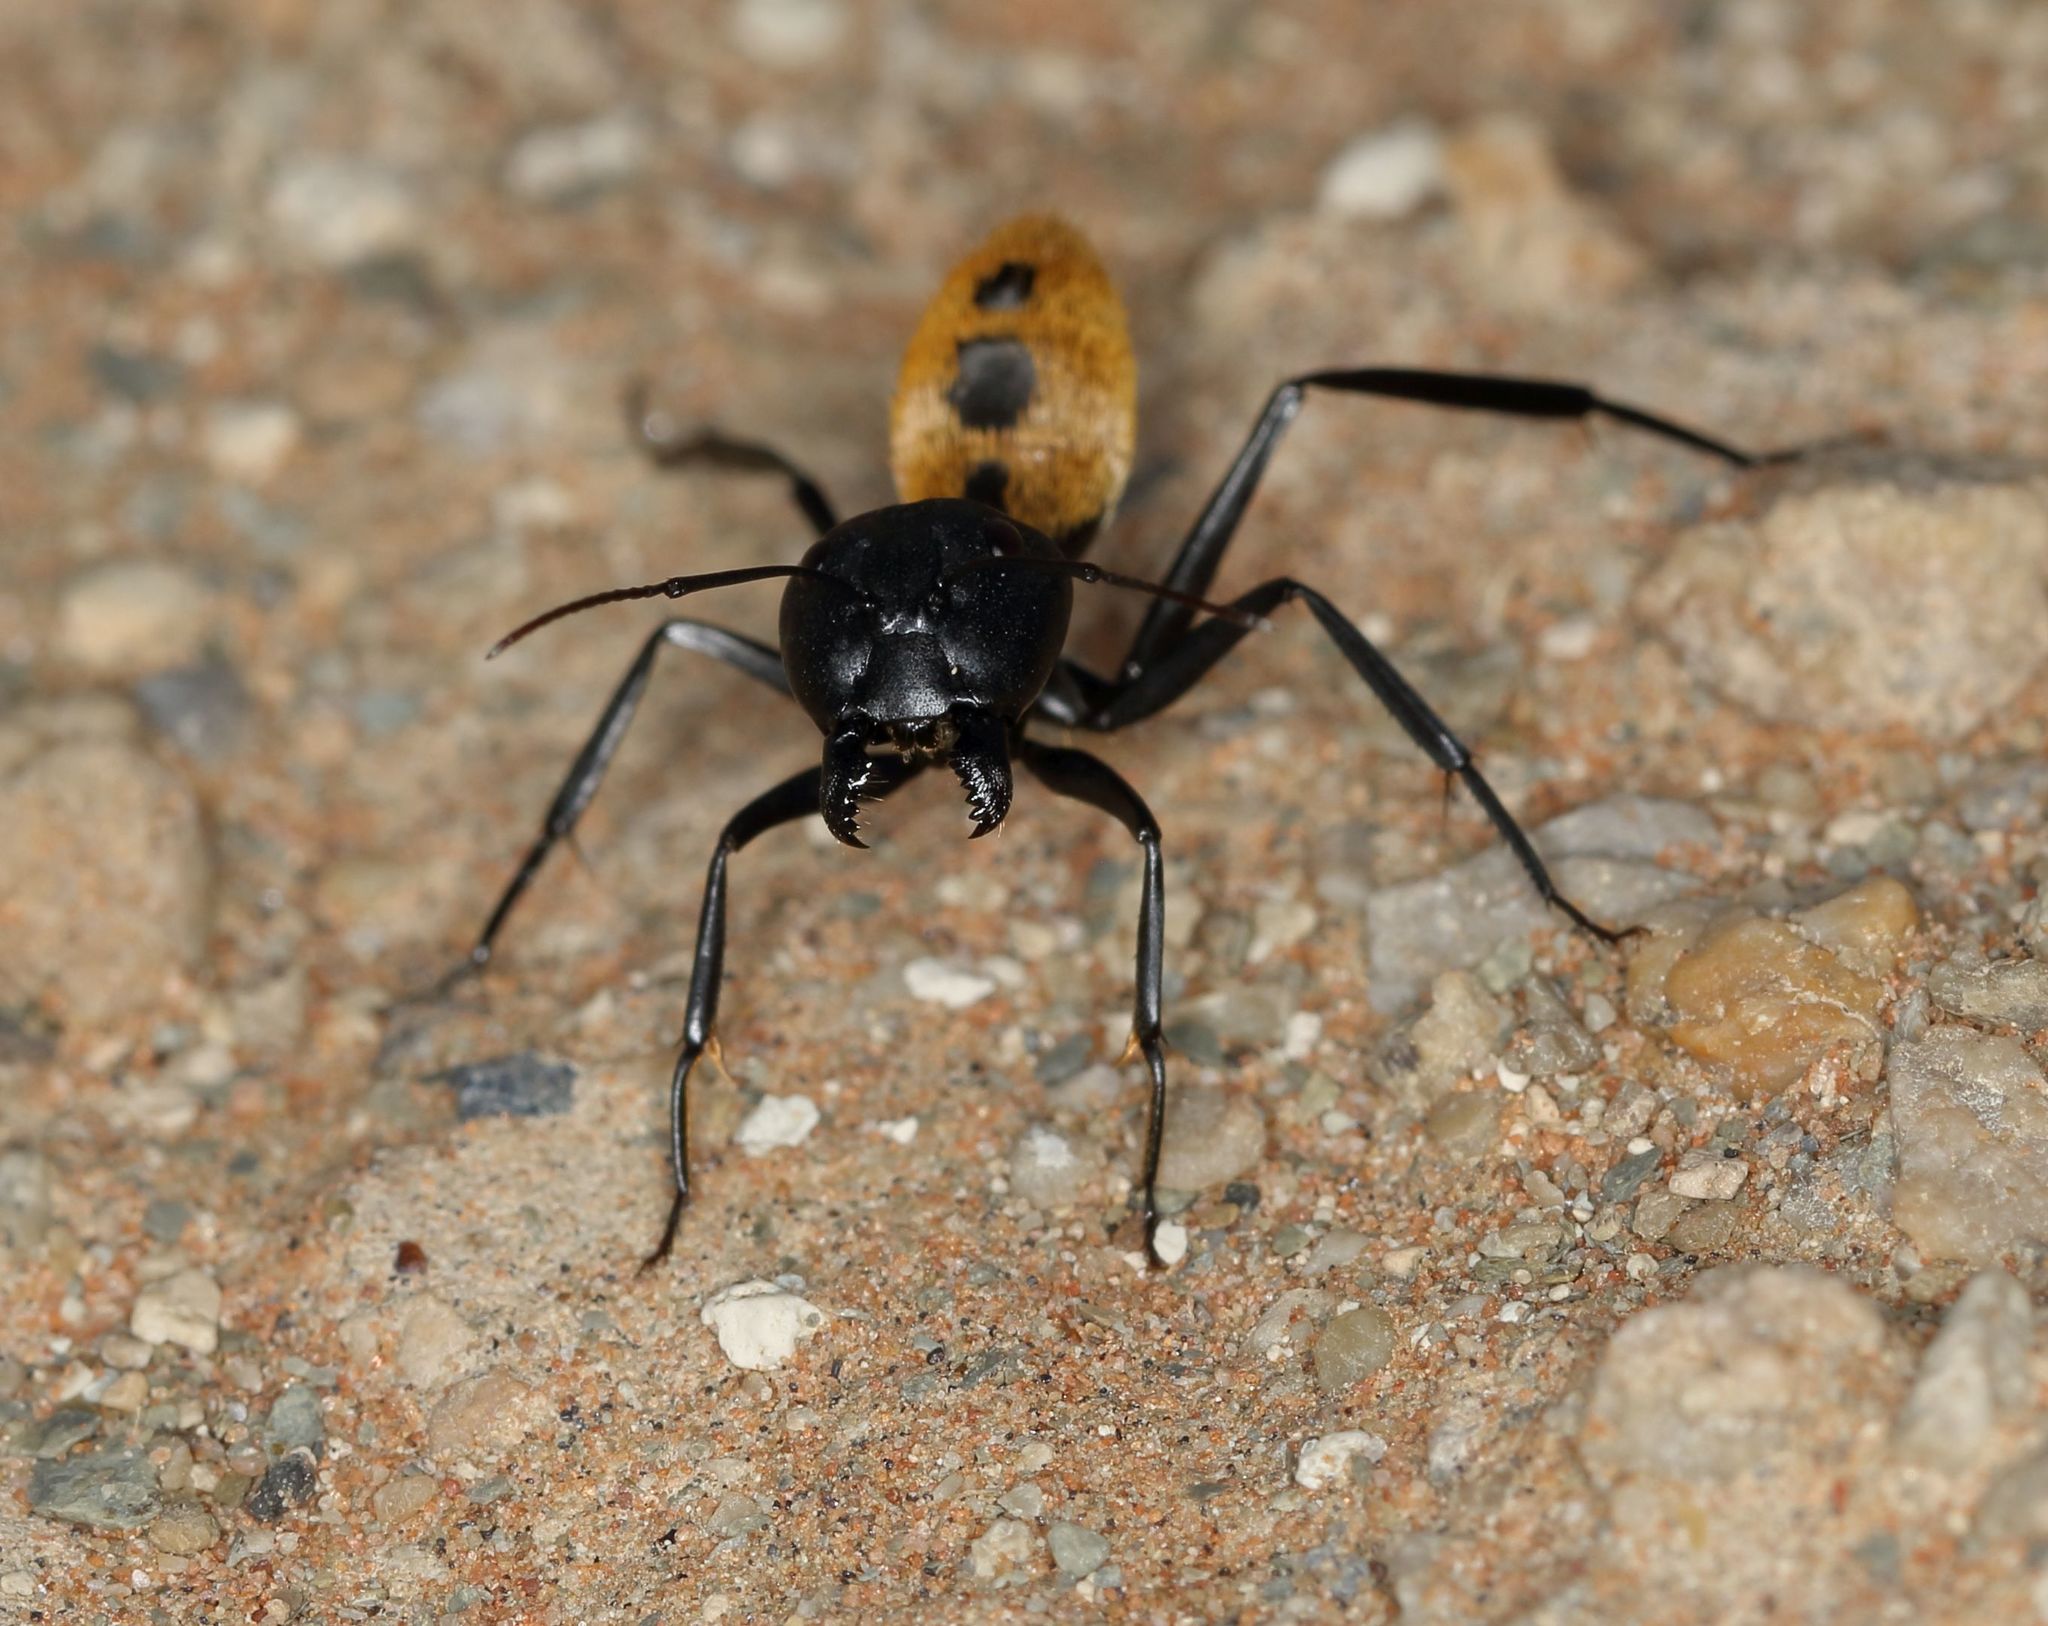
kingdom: Animalia
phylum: Arthropoda
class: Insecta
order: Hymenoptera
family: Formicidae
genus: Camponotus
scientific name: Camponotus fulvopilosus
